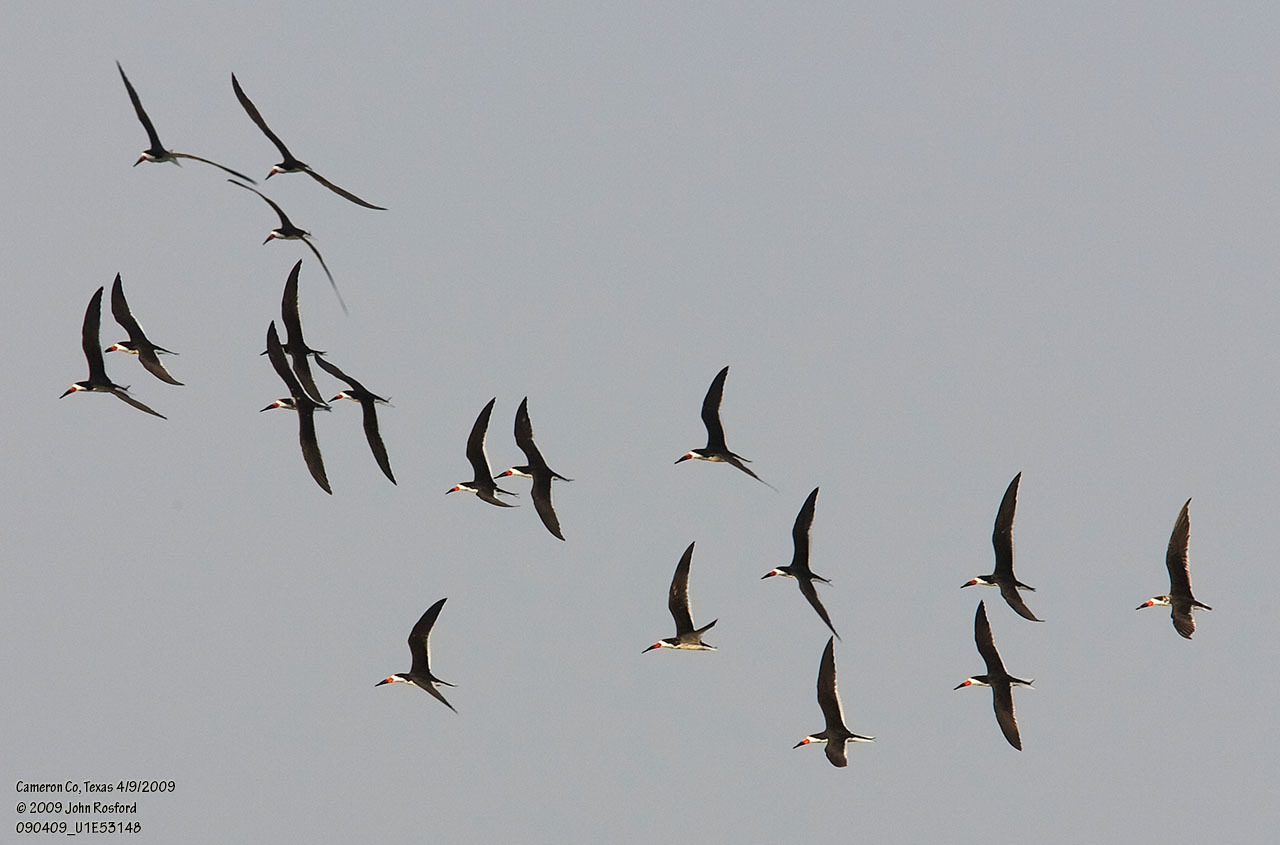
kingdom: Animalia
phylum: Chordata
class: Aves
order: Charadriiformes
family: Laridae
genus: Rynchops
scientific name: Rynchops niger
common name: Black skimmer
